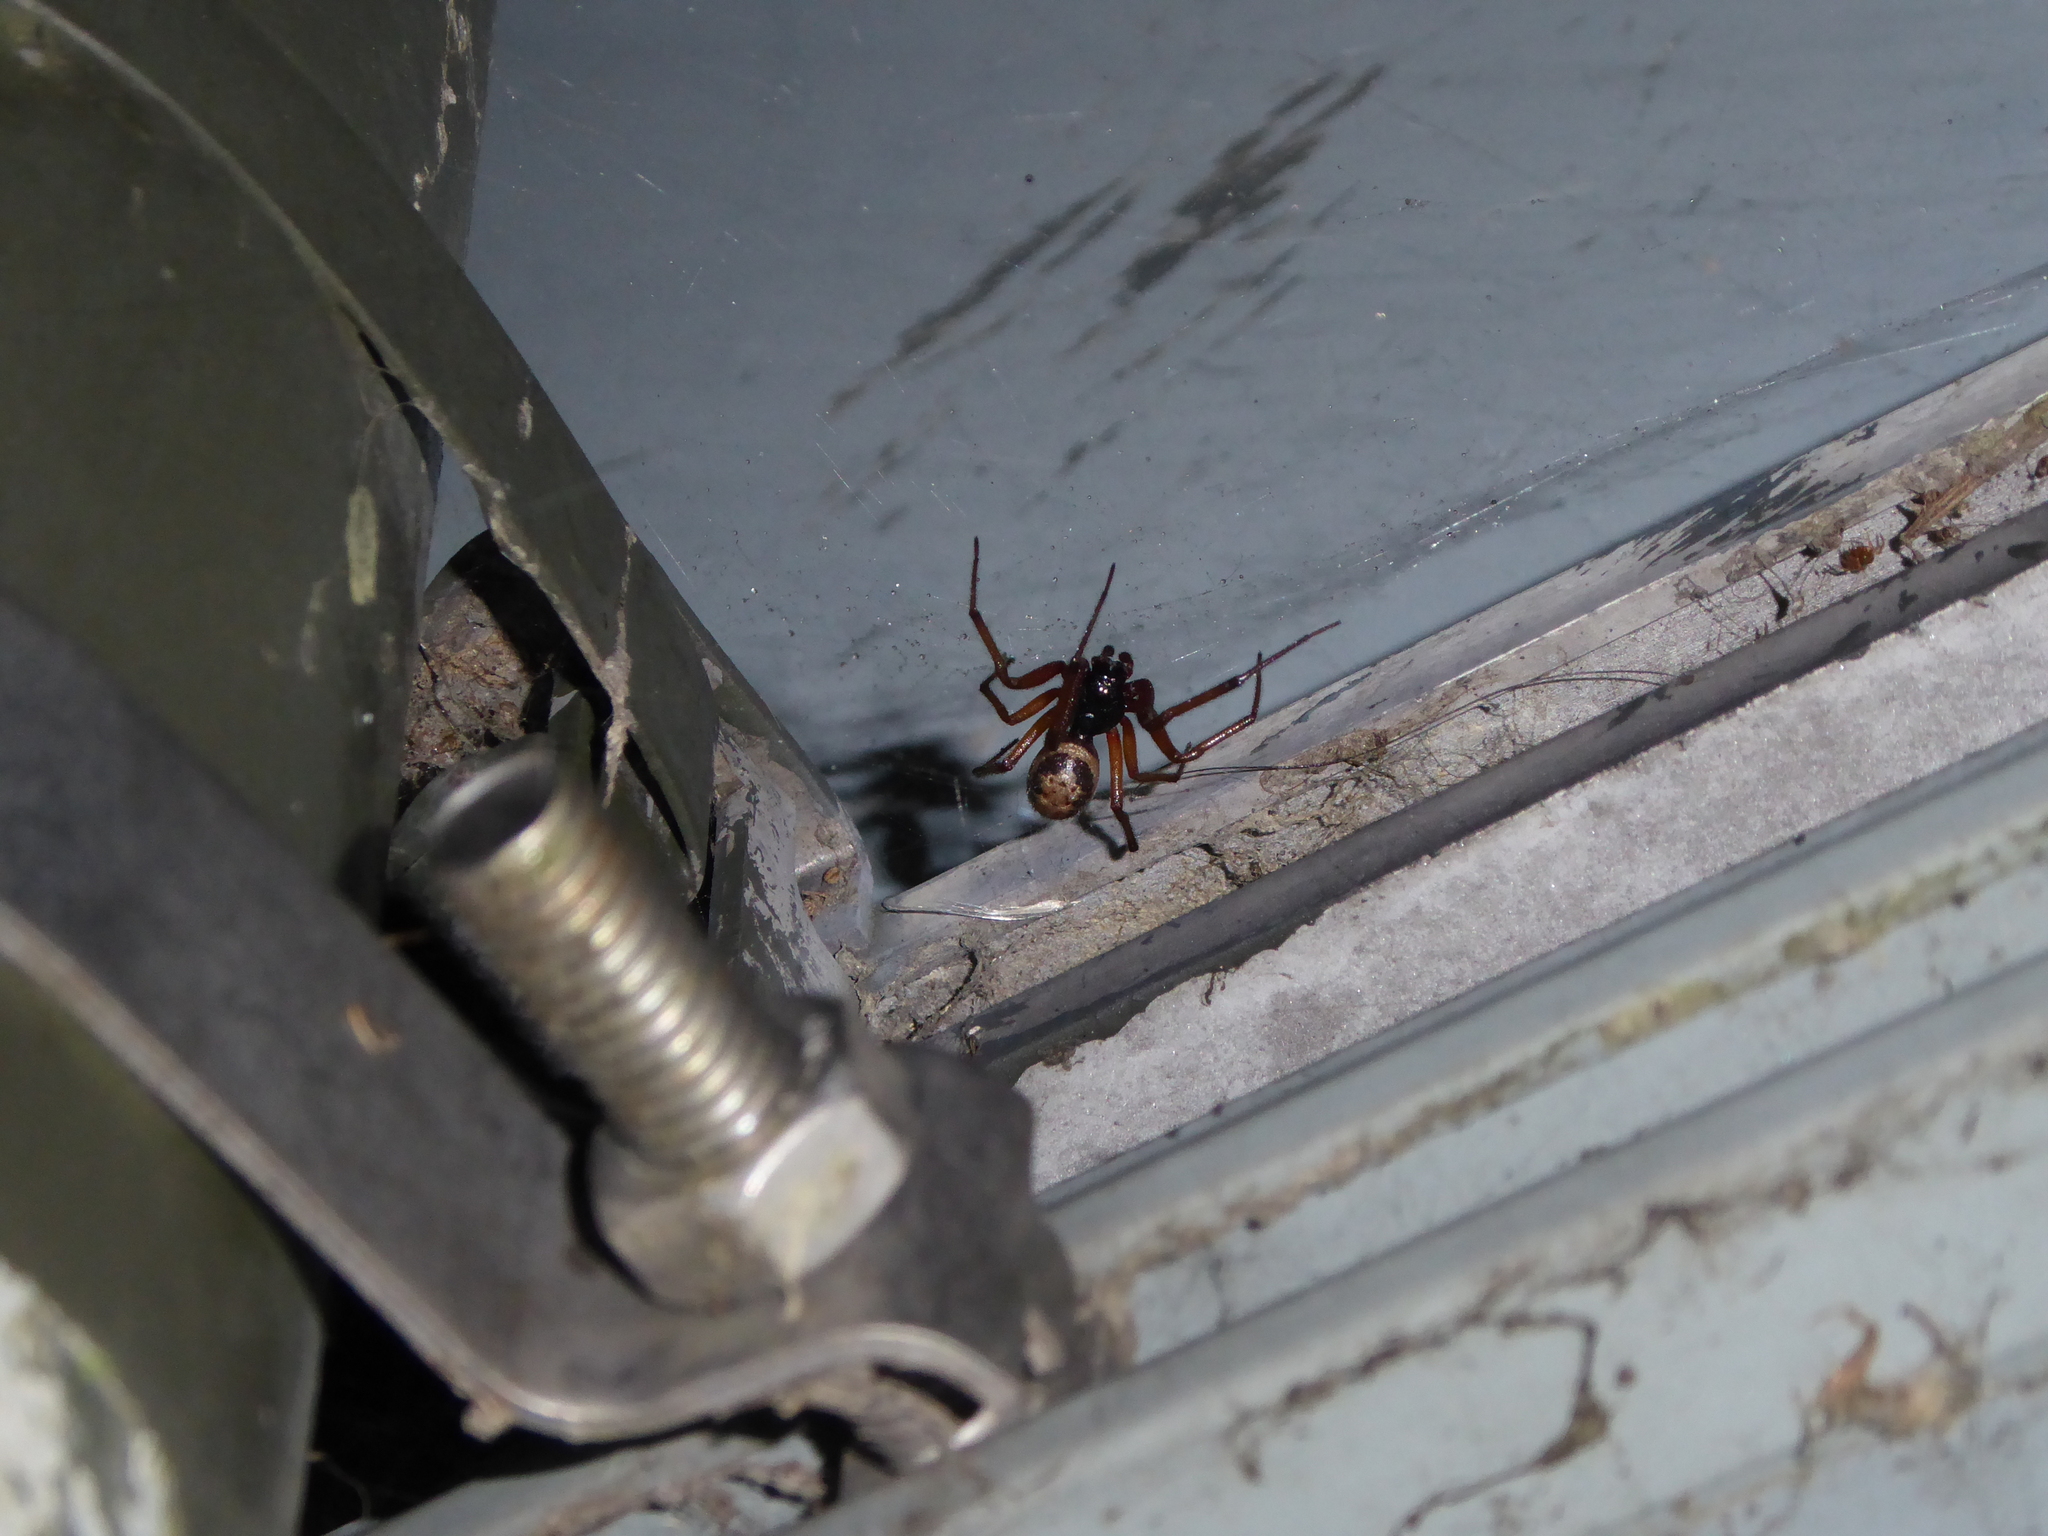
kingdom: Animalia
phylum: Arthropoda
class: Arachnida
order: Araneae
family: Theridiidae
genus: Steatoda
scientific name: Steatoda nobilis
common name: Cobweb weaver
